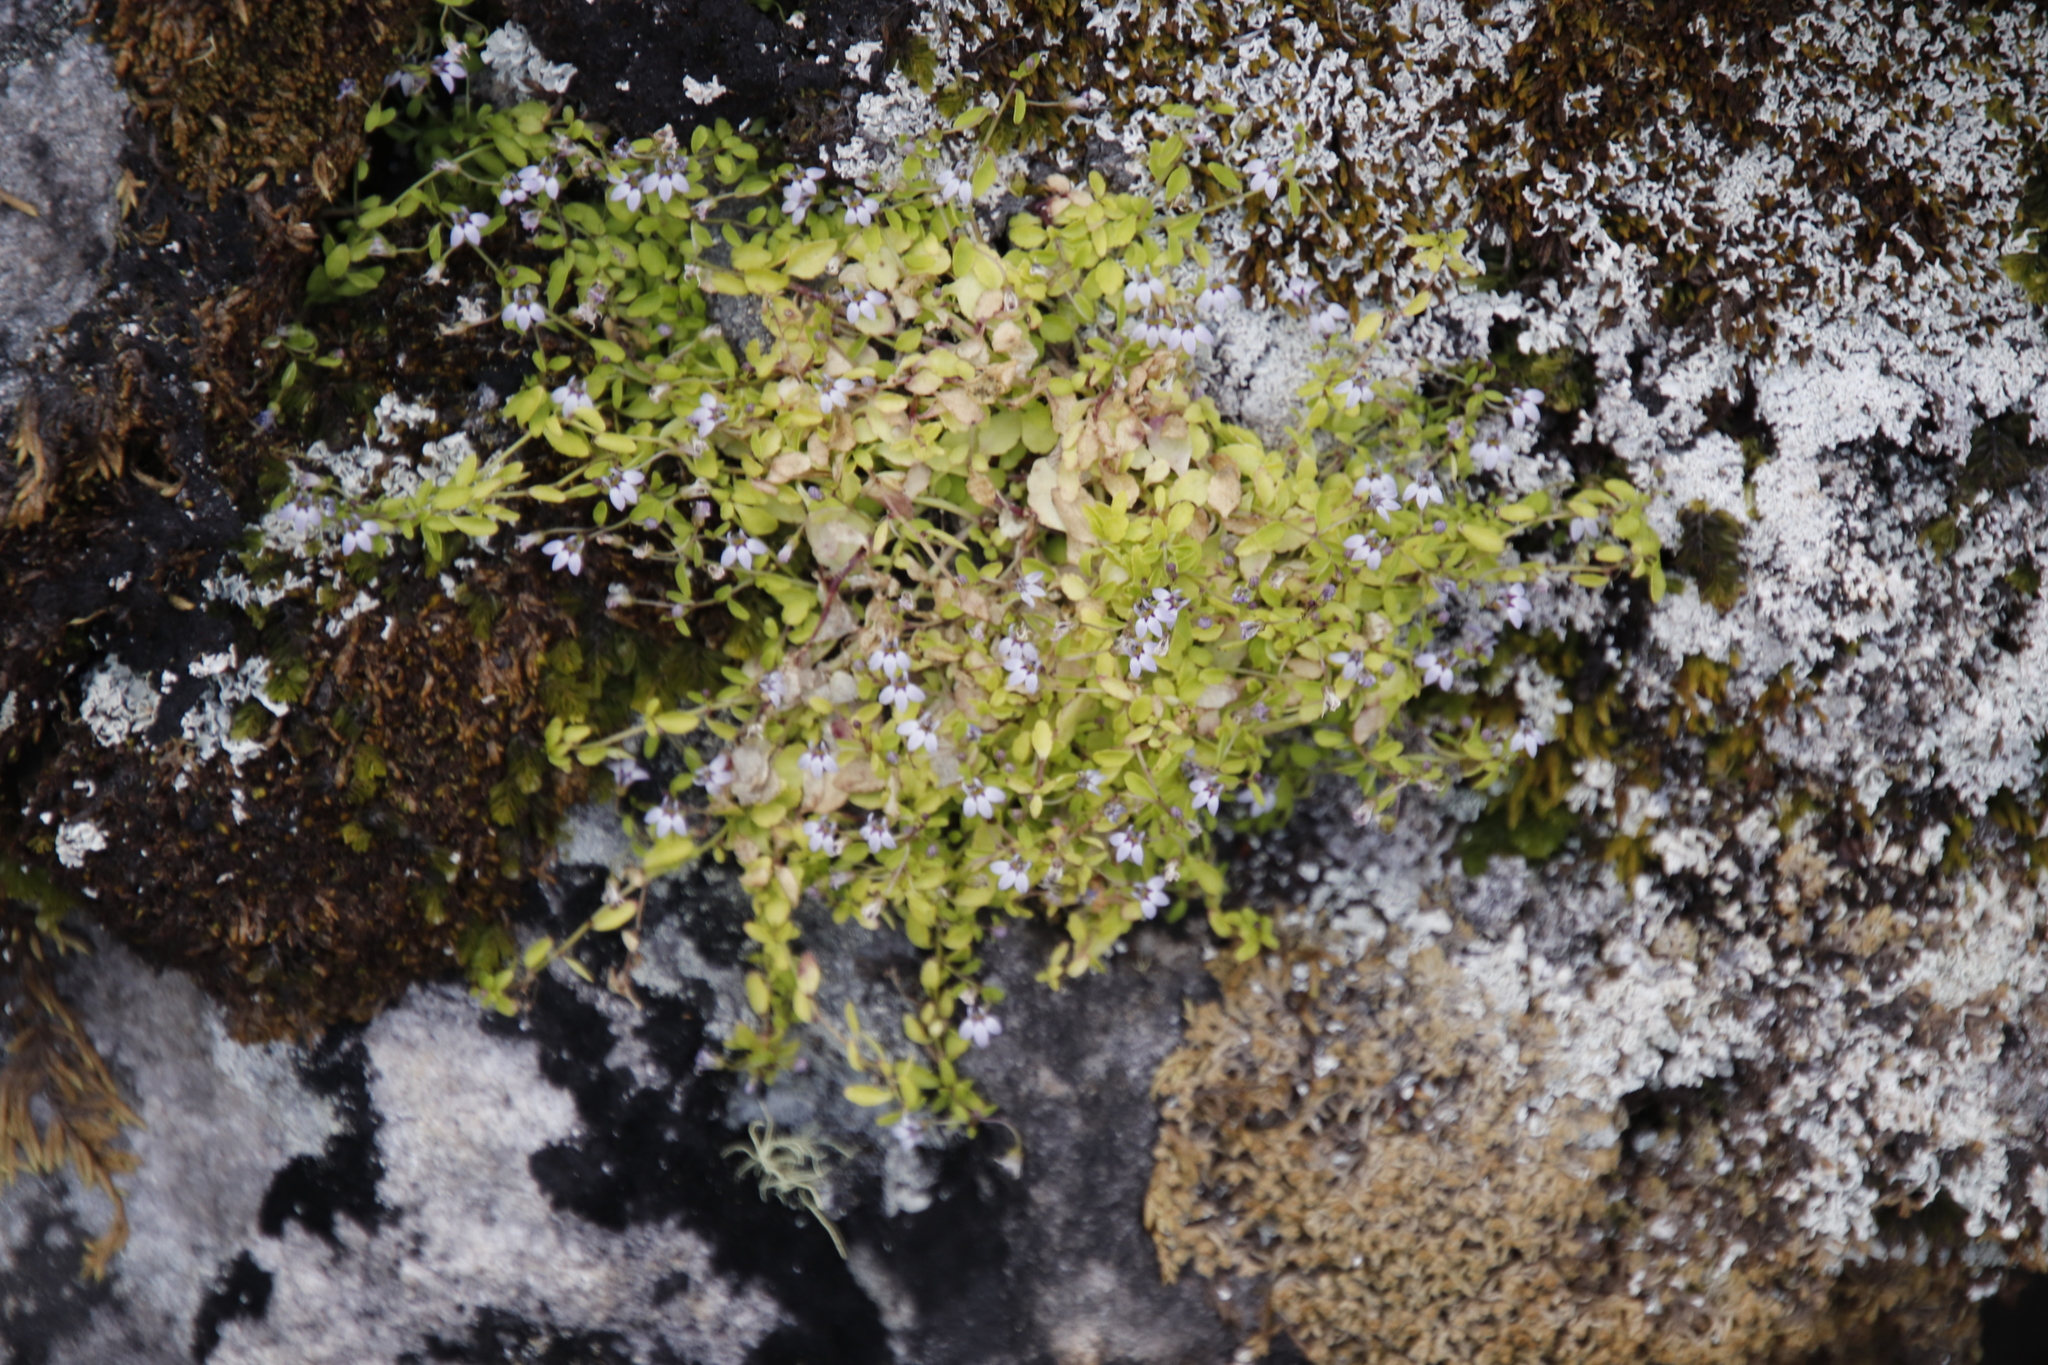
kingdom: Plantae
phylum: Tracheophyta
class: Magnoliopsida
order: Asterales
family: Campanulaceae
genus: Unigenes
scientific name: Unigenes humifusa
